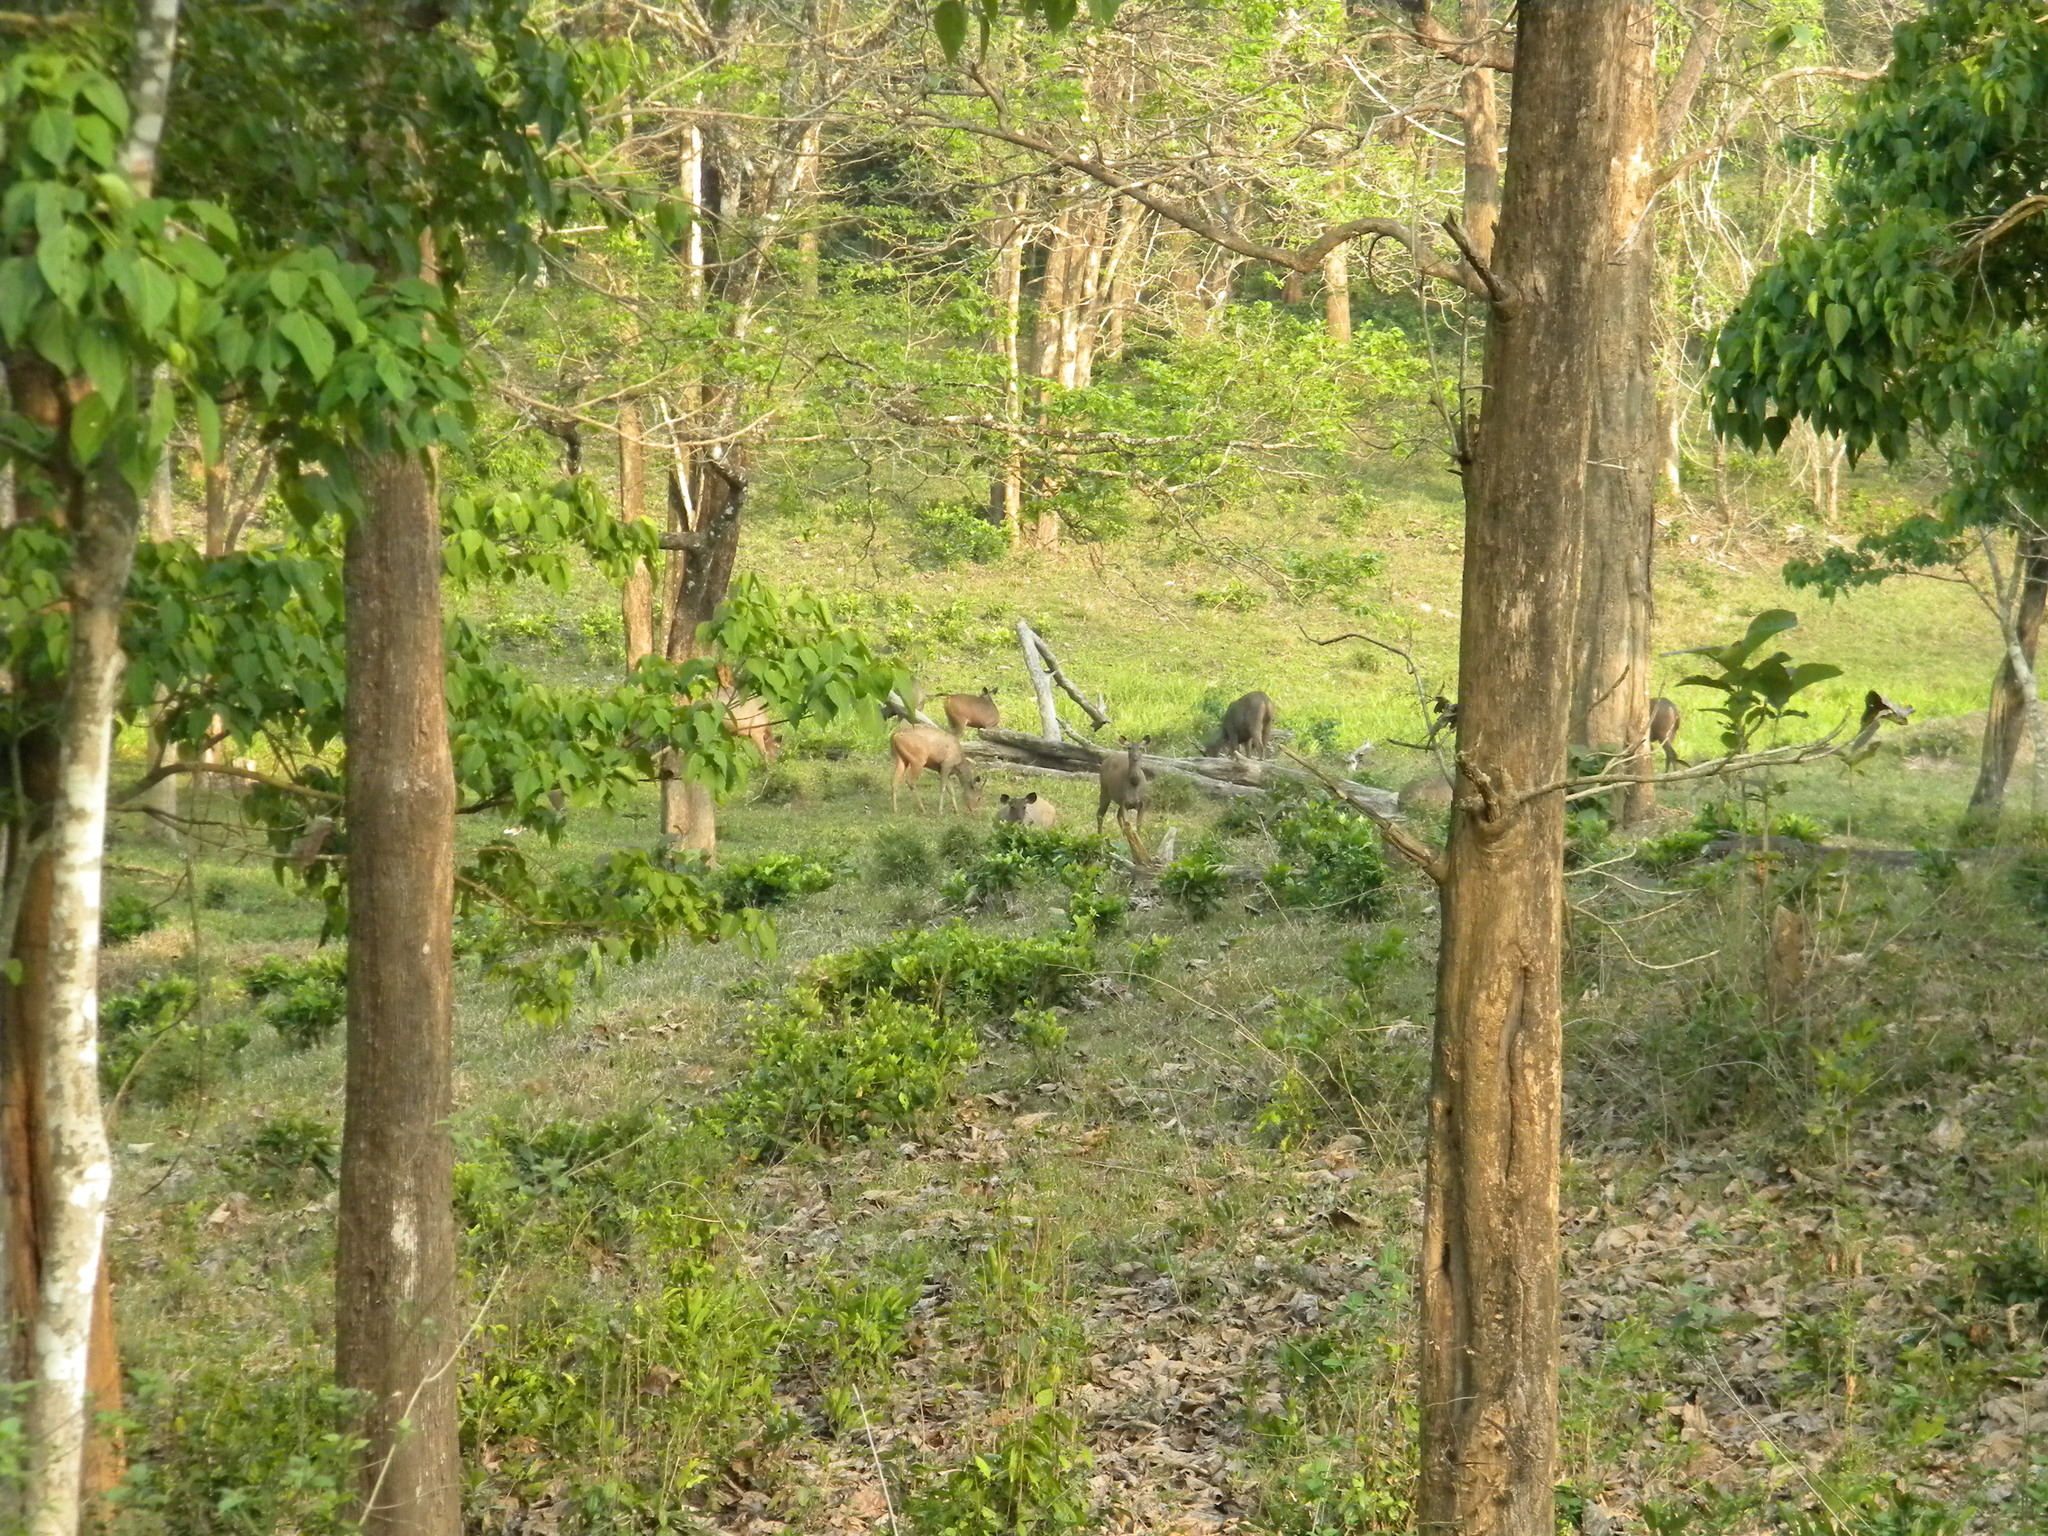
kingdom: Animalia
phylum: Chordata
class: Mammalia
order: Artiodactyla
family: Cervidae
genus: Rusa
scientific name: Rusa unicolor
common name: Sambar
